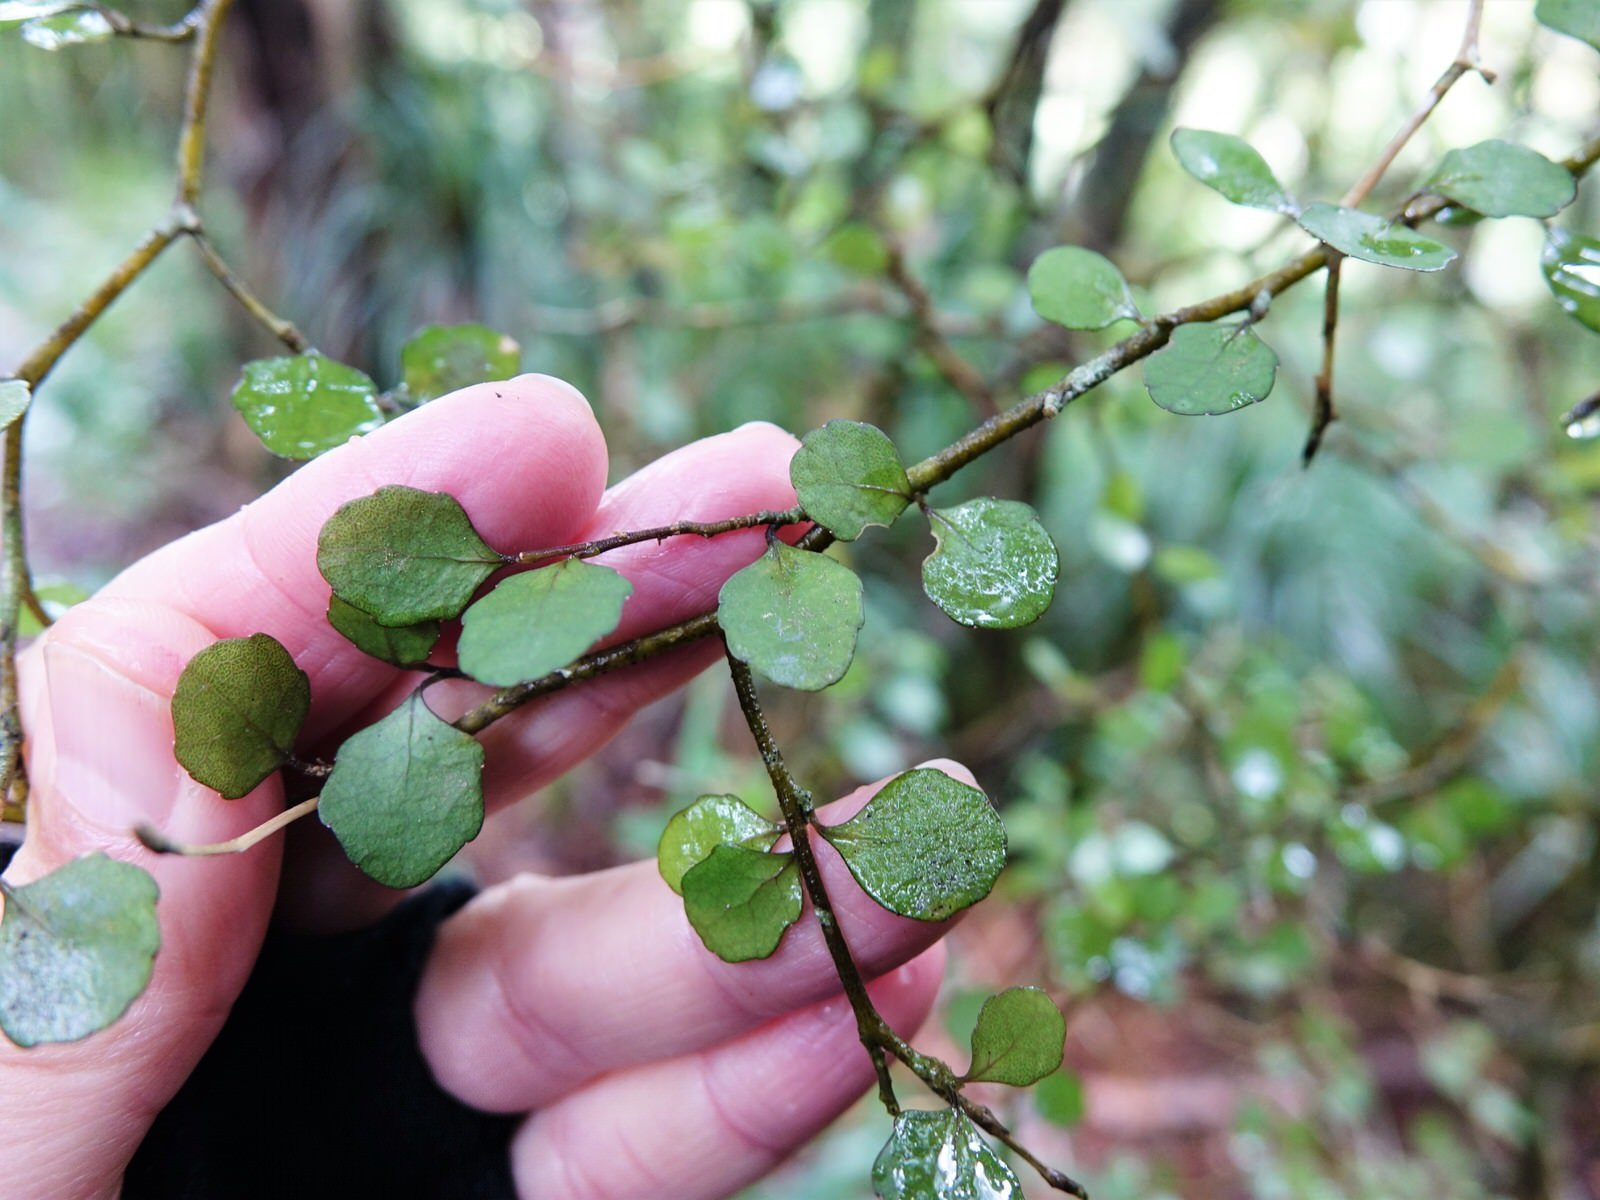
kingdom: Plantae
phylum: Tracheophyta
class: Magnoliopsida
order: Malpighiales
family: Violaceae
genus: Melicytus
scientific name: Melicytus micranthus
